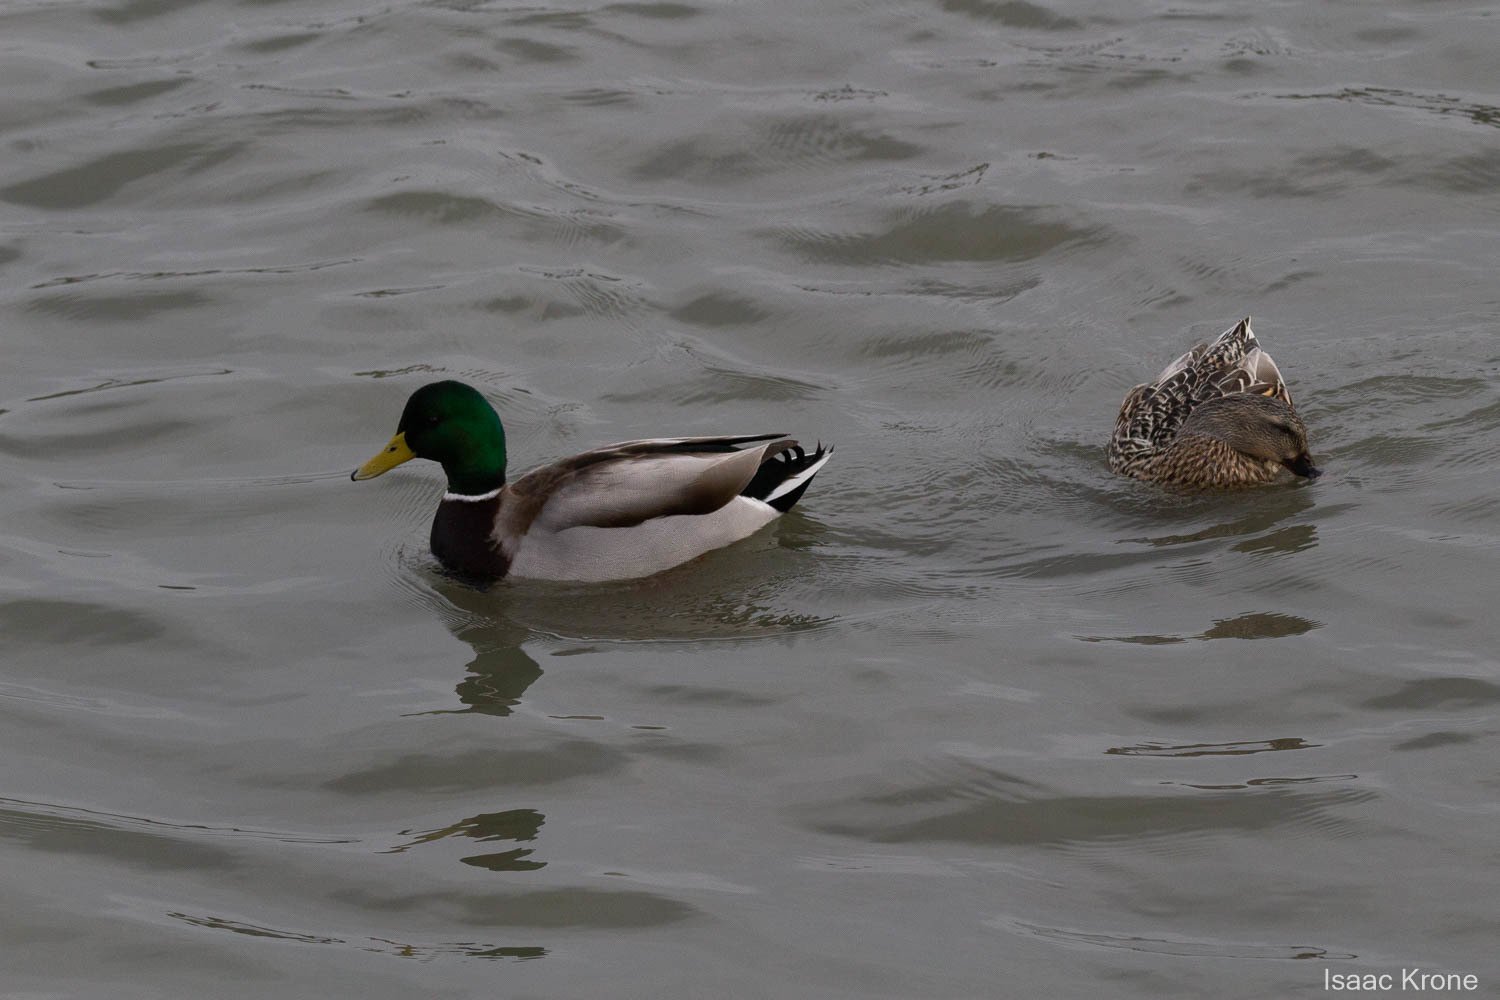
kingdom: Animalia
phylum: Chordata
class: Aves
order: Anseriformes
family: Anatidae
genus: Anas
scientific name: Anas platyrhynchos
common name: Mallard
